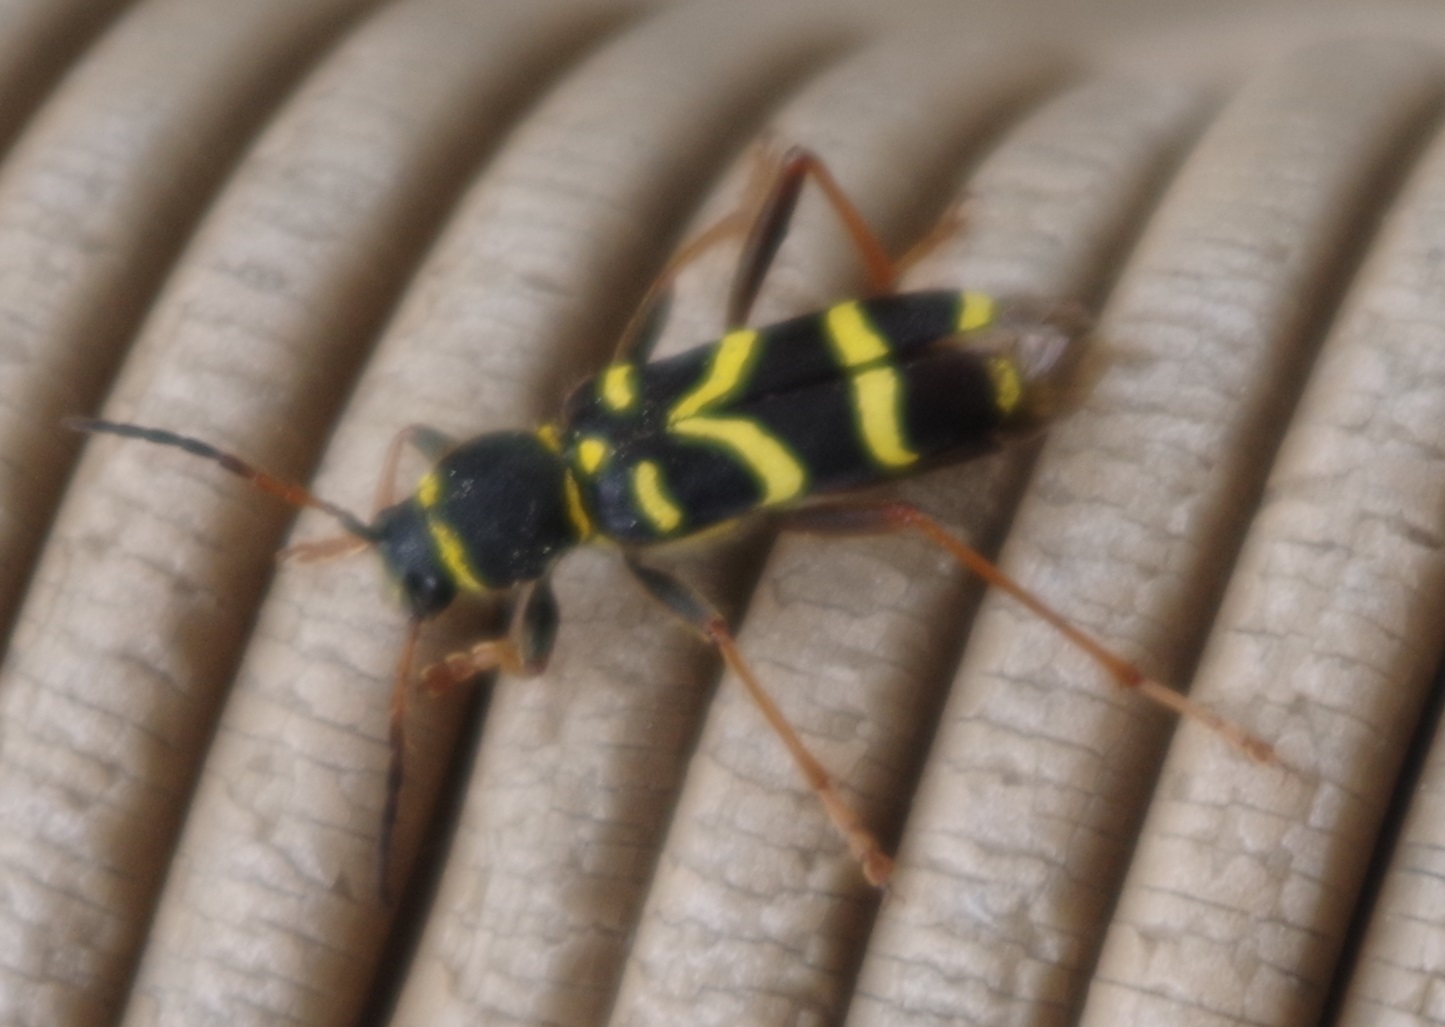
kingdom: Animalia
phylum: Arthropoda
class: Insecta
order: Coleoptera
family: Cerambycidae
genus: Clytus
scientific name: Clytus arietis
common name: Wasp beetle
